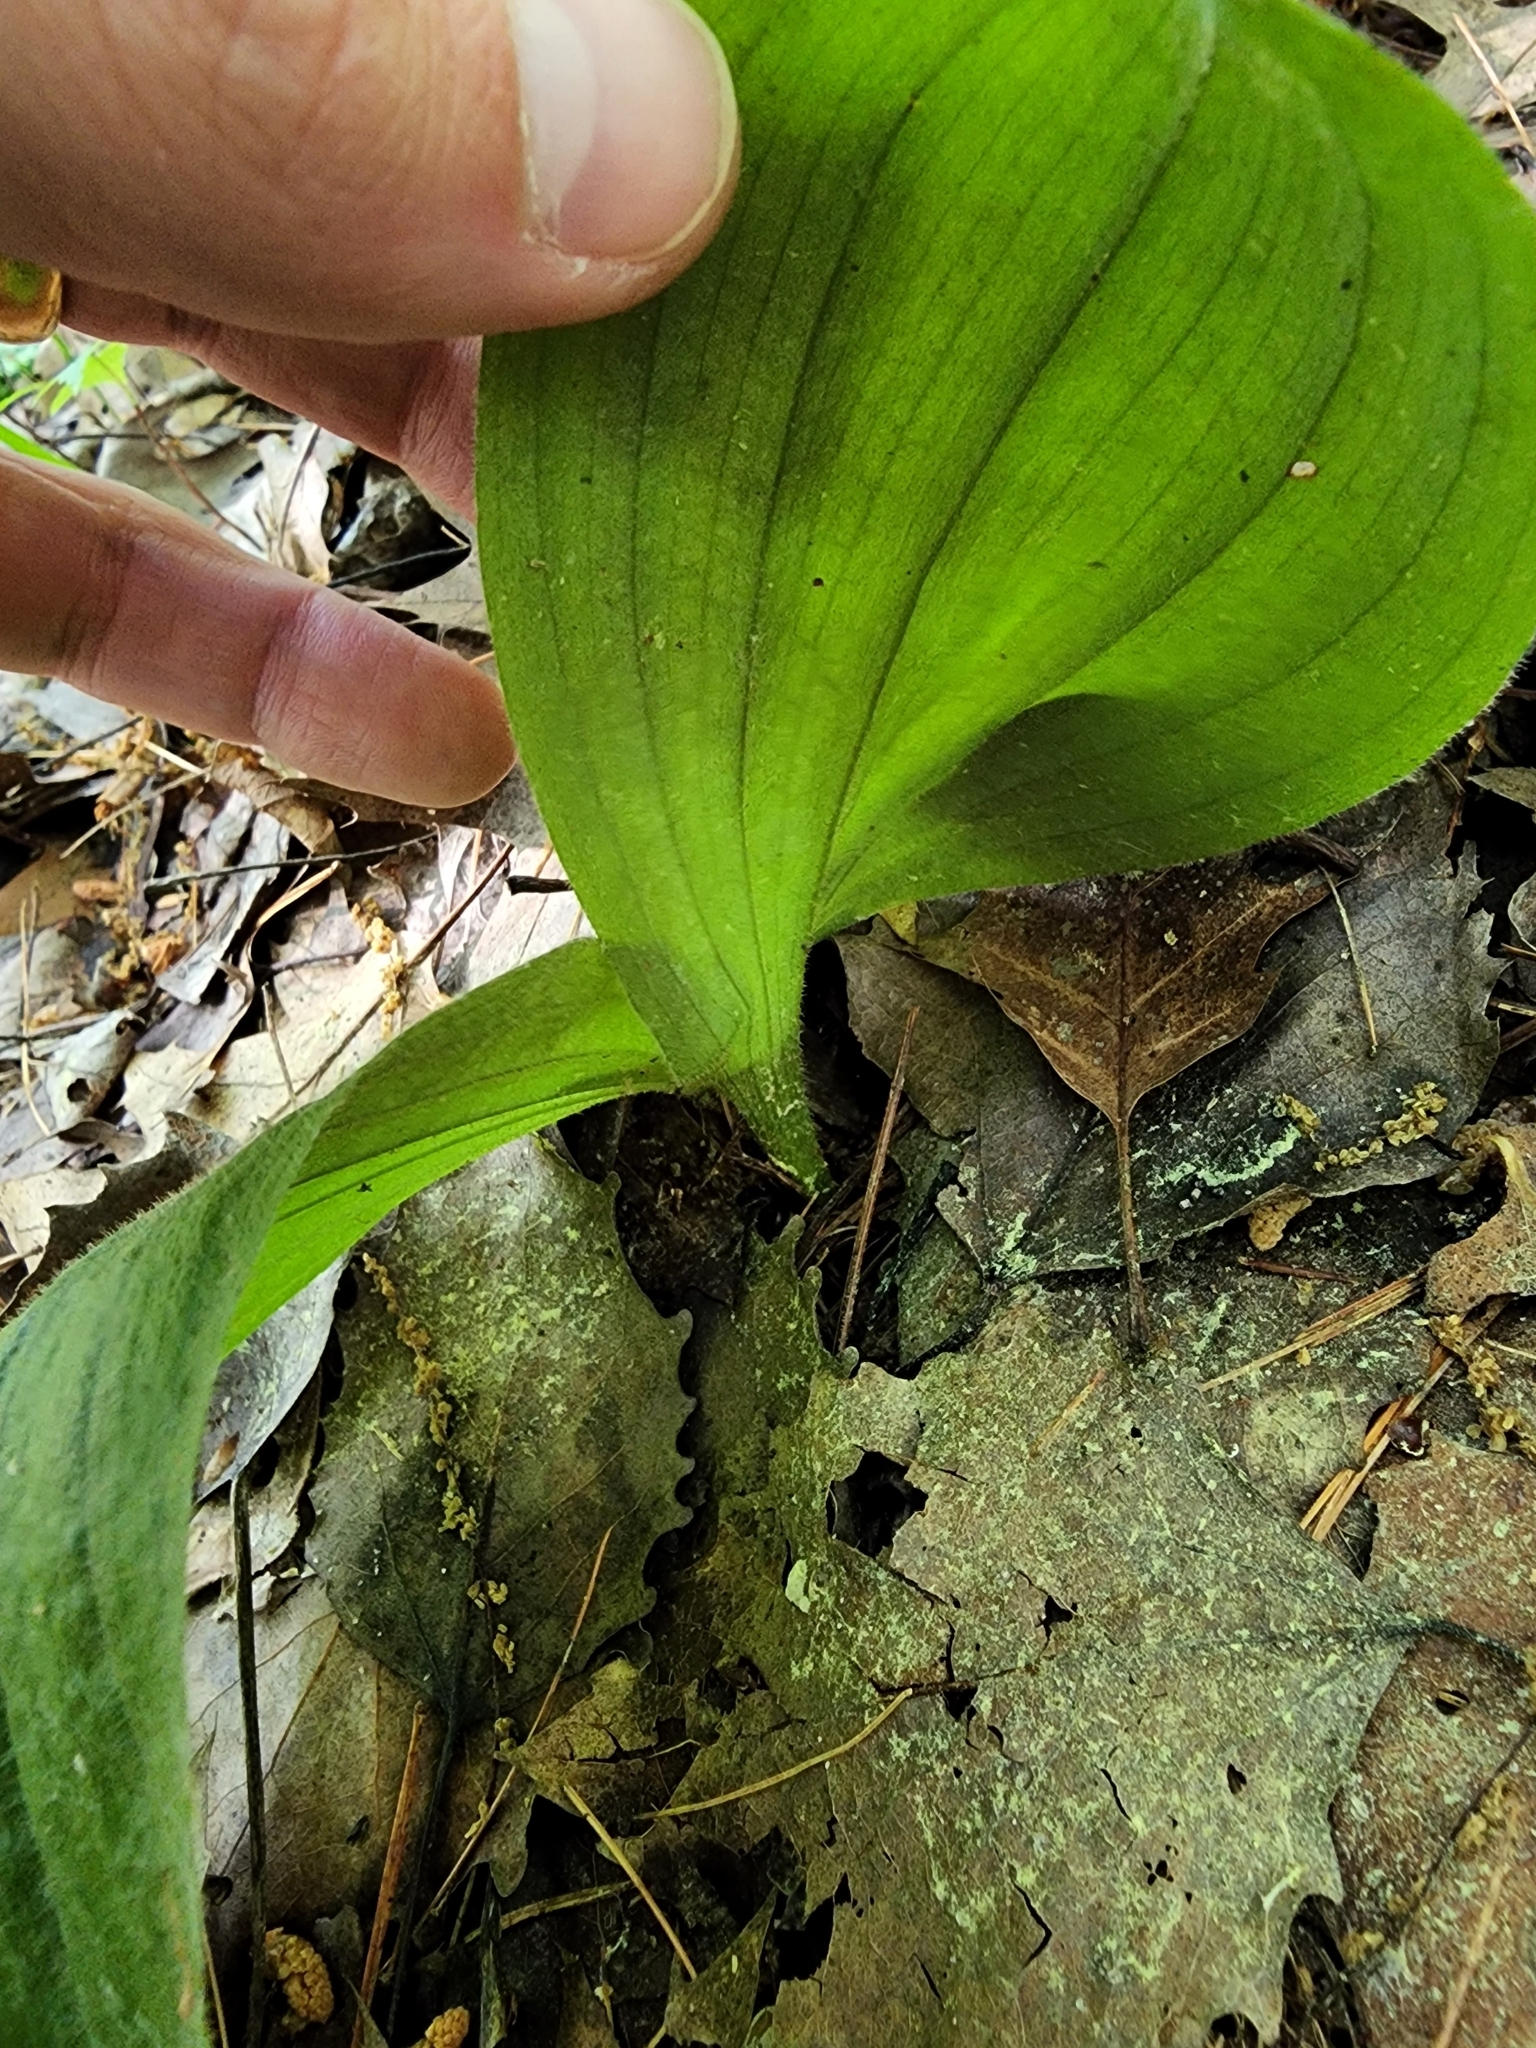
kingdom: Plantae
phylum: Tracheophyta
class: Liliopsida
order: Asparagales
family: Orchidaceae
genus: Cypripedium
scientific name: Cypripedium acaule
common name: Pink lady's-slipper
